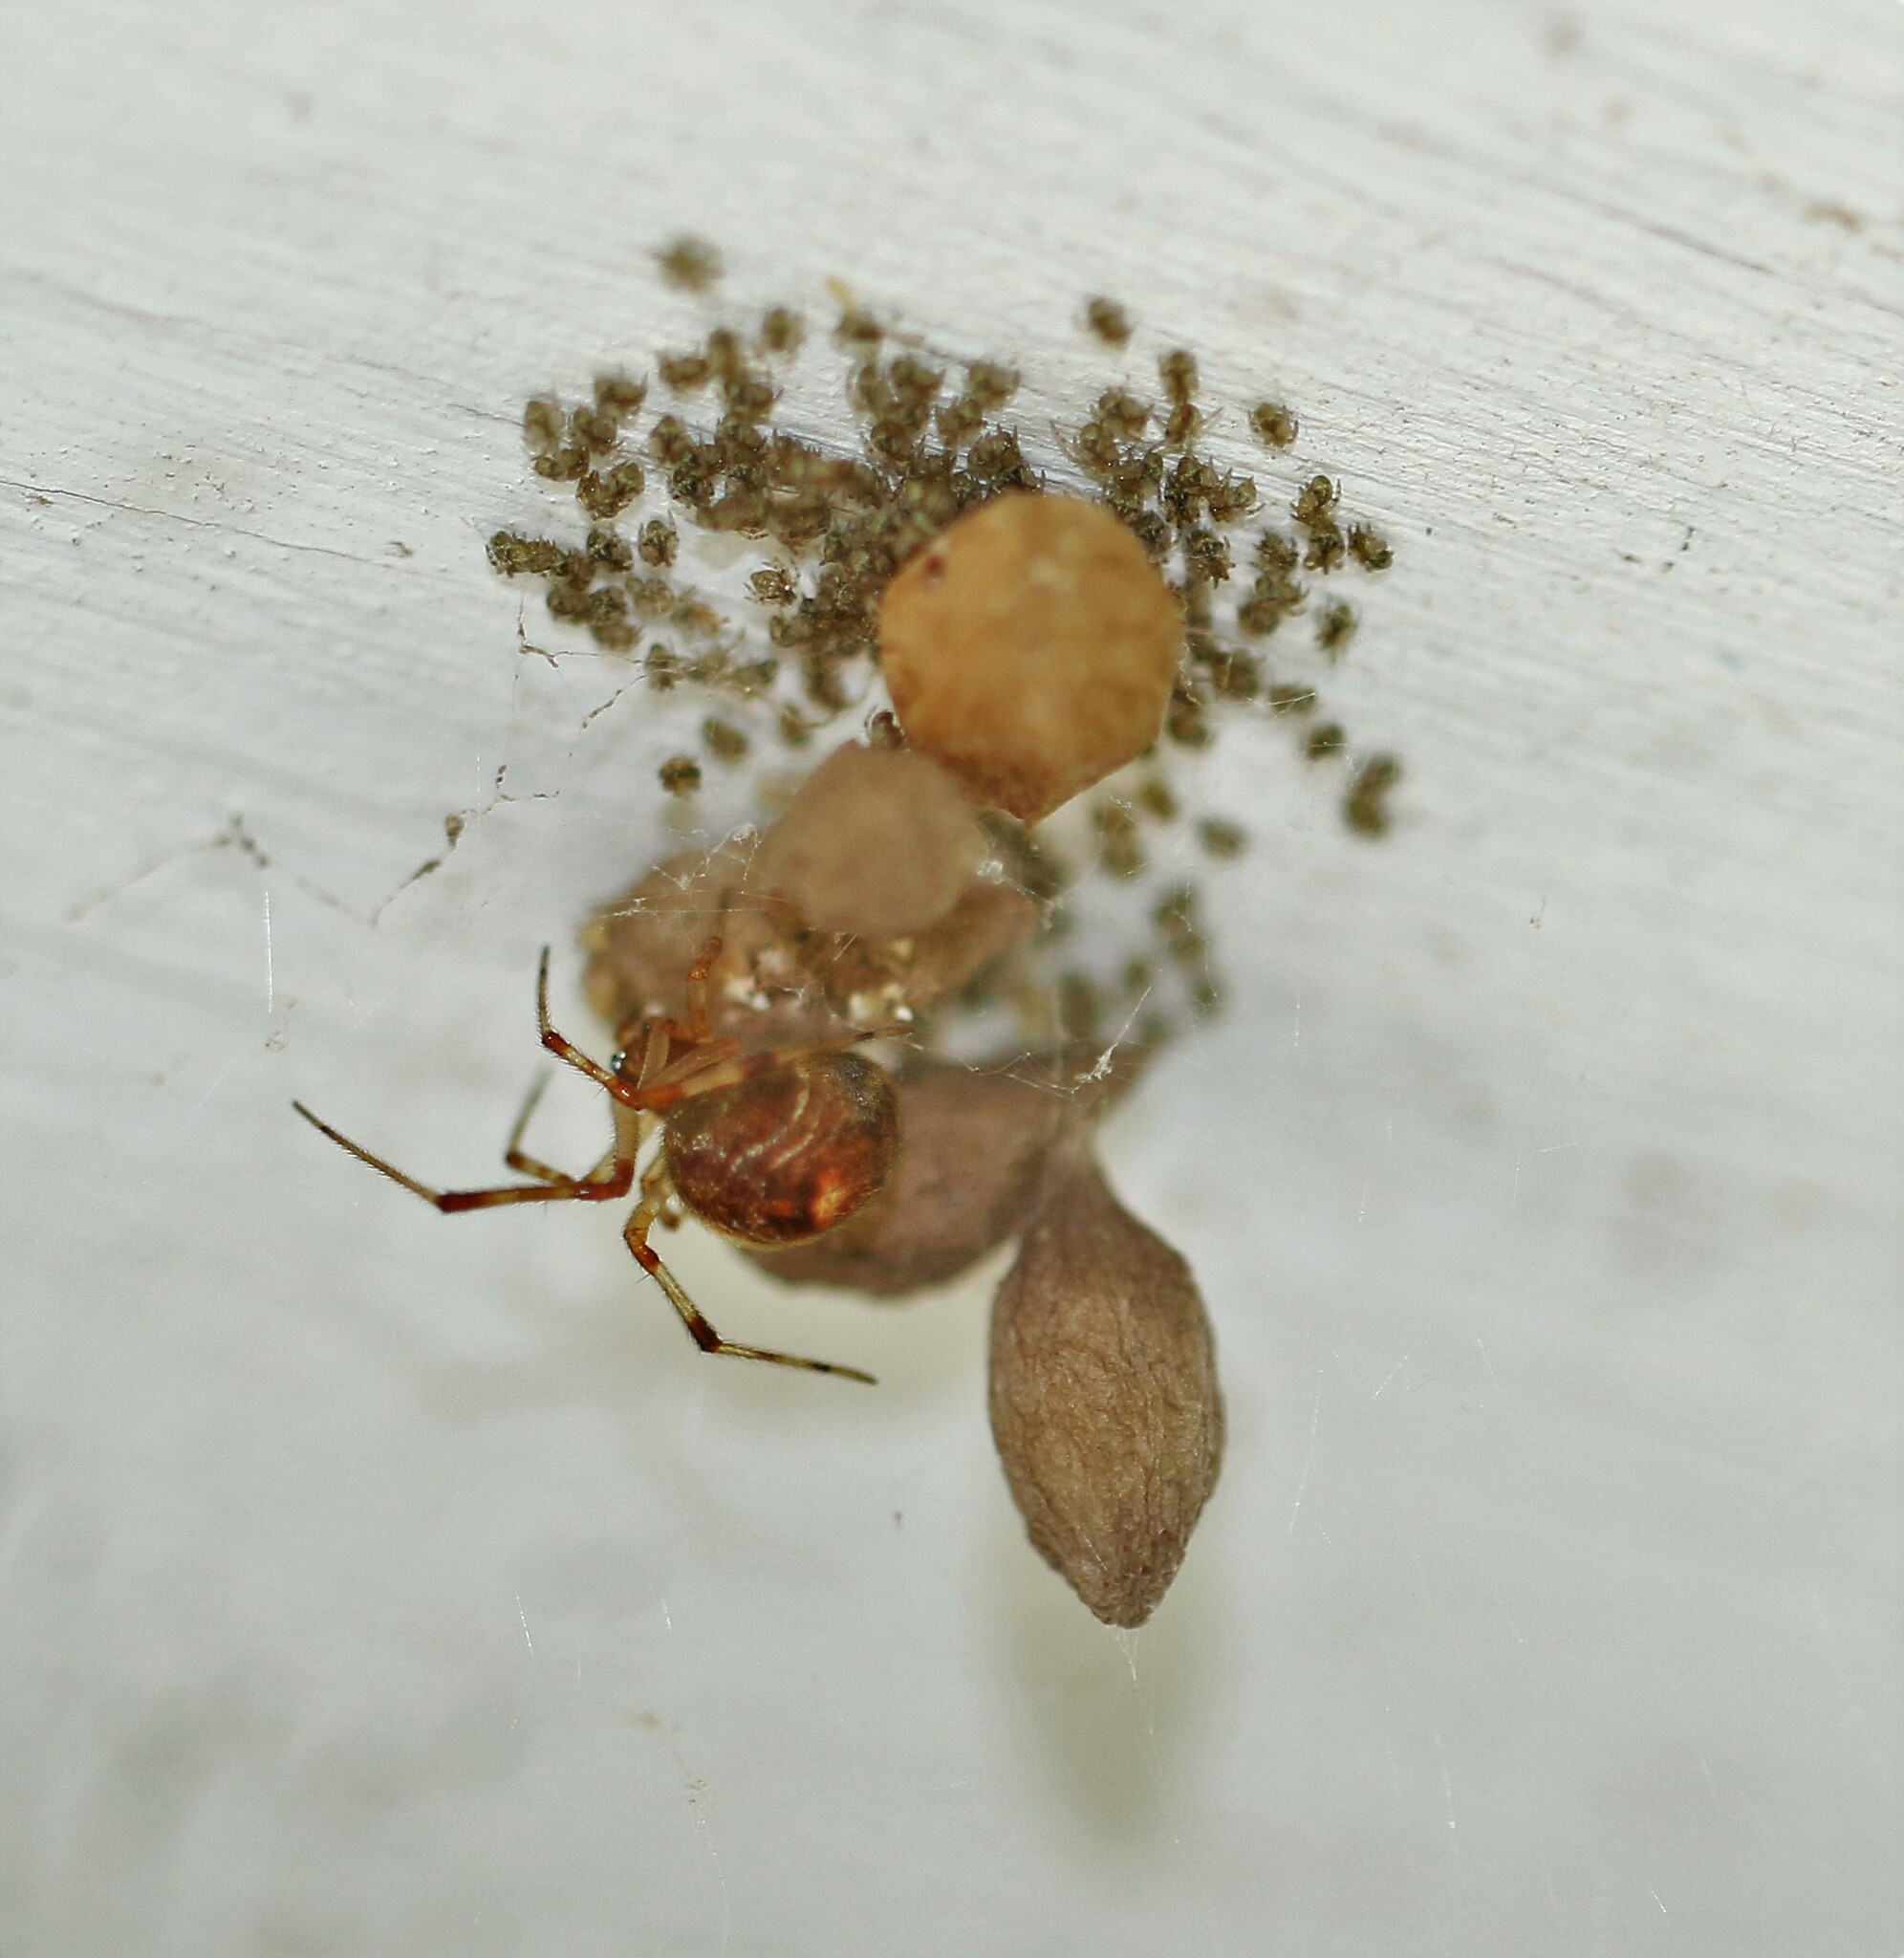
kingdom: Animalia
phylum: Arthropoda
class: Arachnida
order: Araneae
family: Theridiidae
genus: Parasteatoda
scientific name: Parasteatoda tepidariorum
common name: Common house spider
